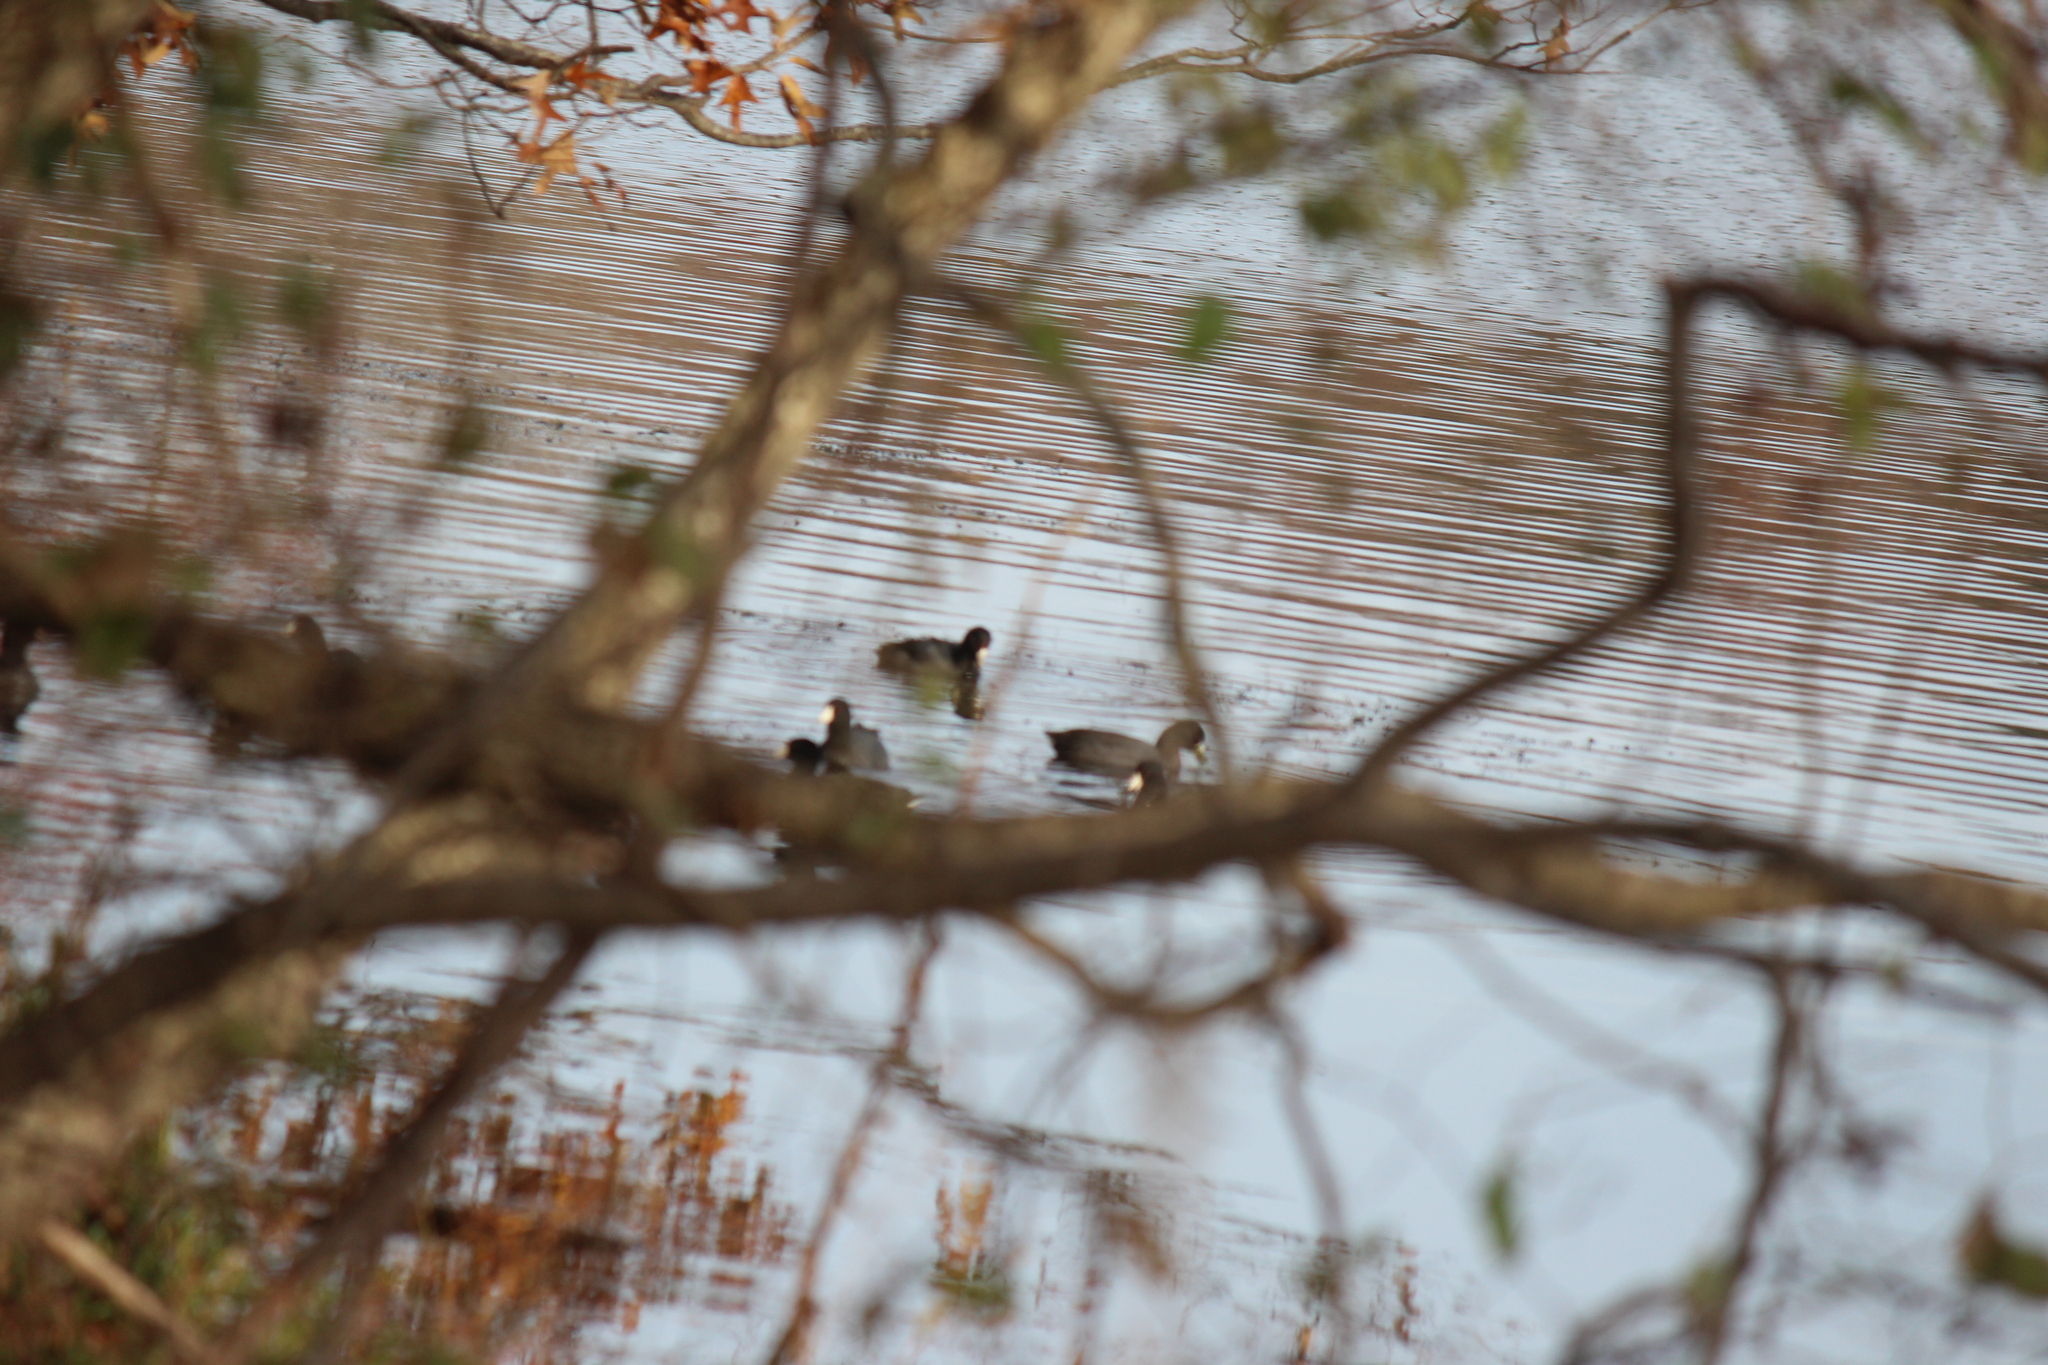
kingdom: Animalia
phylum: Chordata
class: Aves
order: Gruiformes
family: Rallidae
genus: Fulica
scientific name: Fulica americana
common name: American coot
